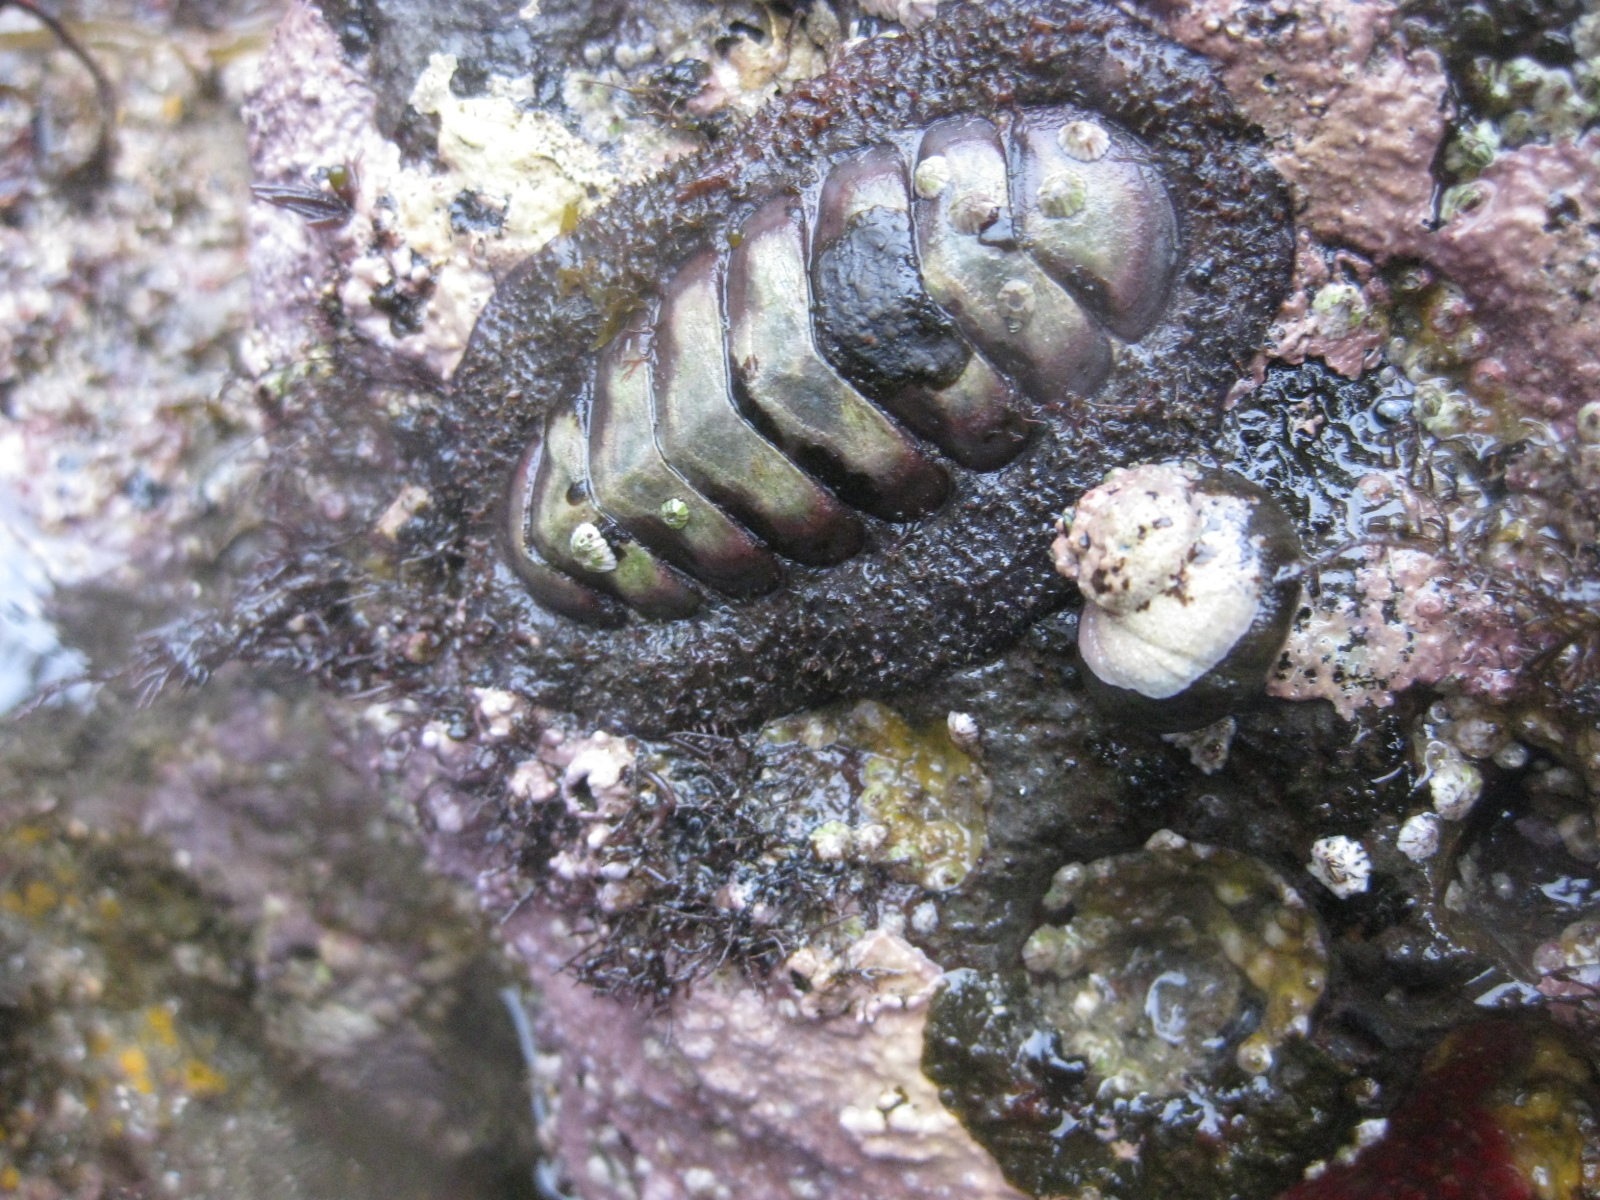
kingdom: Animalia
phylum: Mollusca
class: Polyplacophora
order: Callochitonida
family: Callochitonidae
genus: Eudoxochiton
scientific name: Eudoxochiton nobilis
